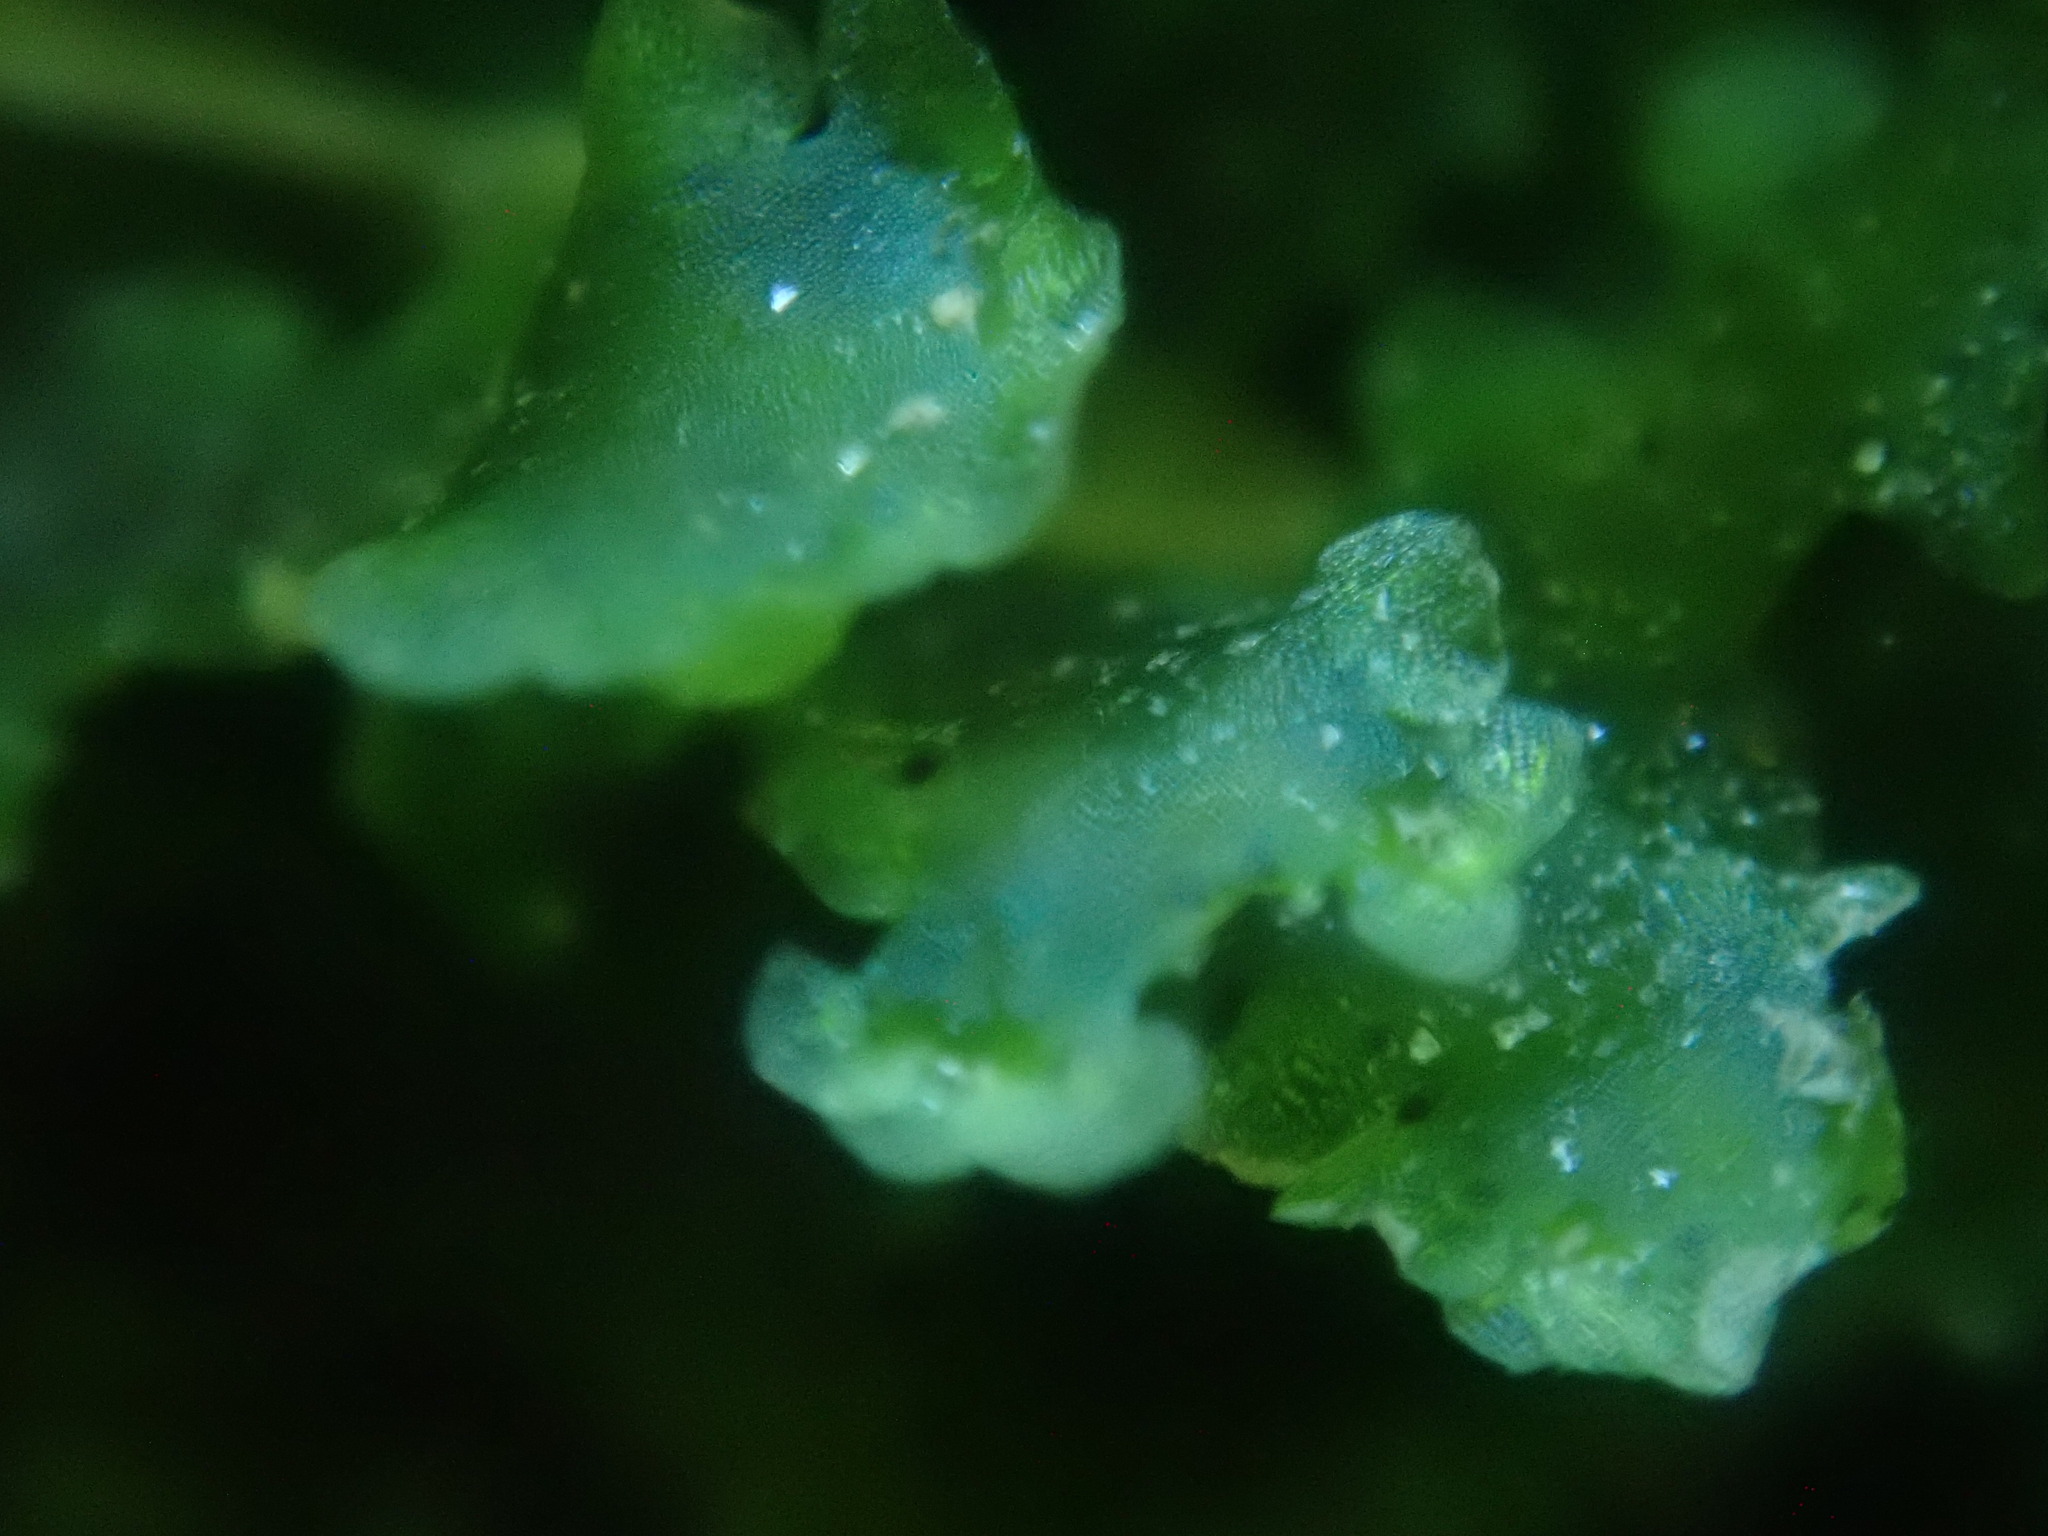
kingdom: Plantae
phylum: Marchantiophyta
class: Marchantiopsida
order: Blasiales
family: Blasiaceae
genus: Blasia
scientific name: Blasia pusilla
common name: Common kettlewort
